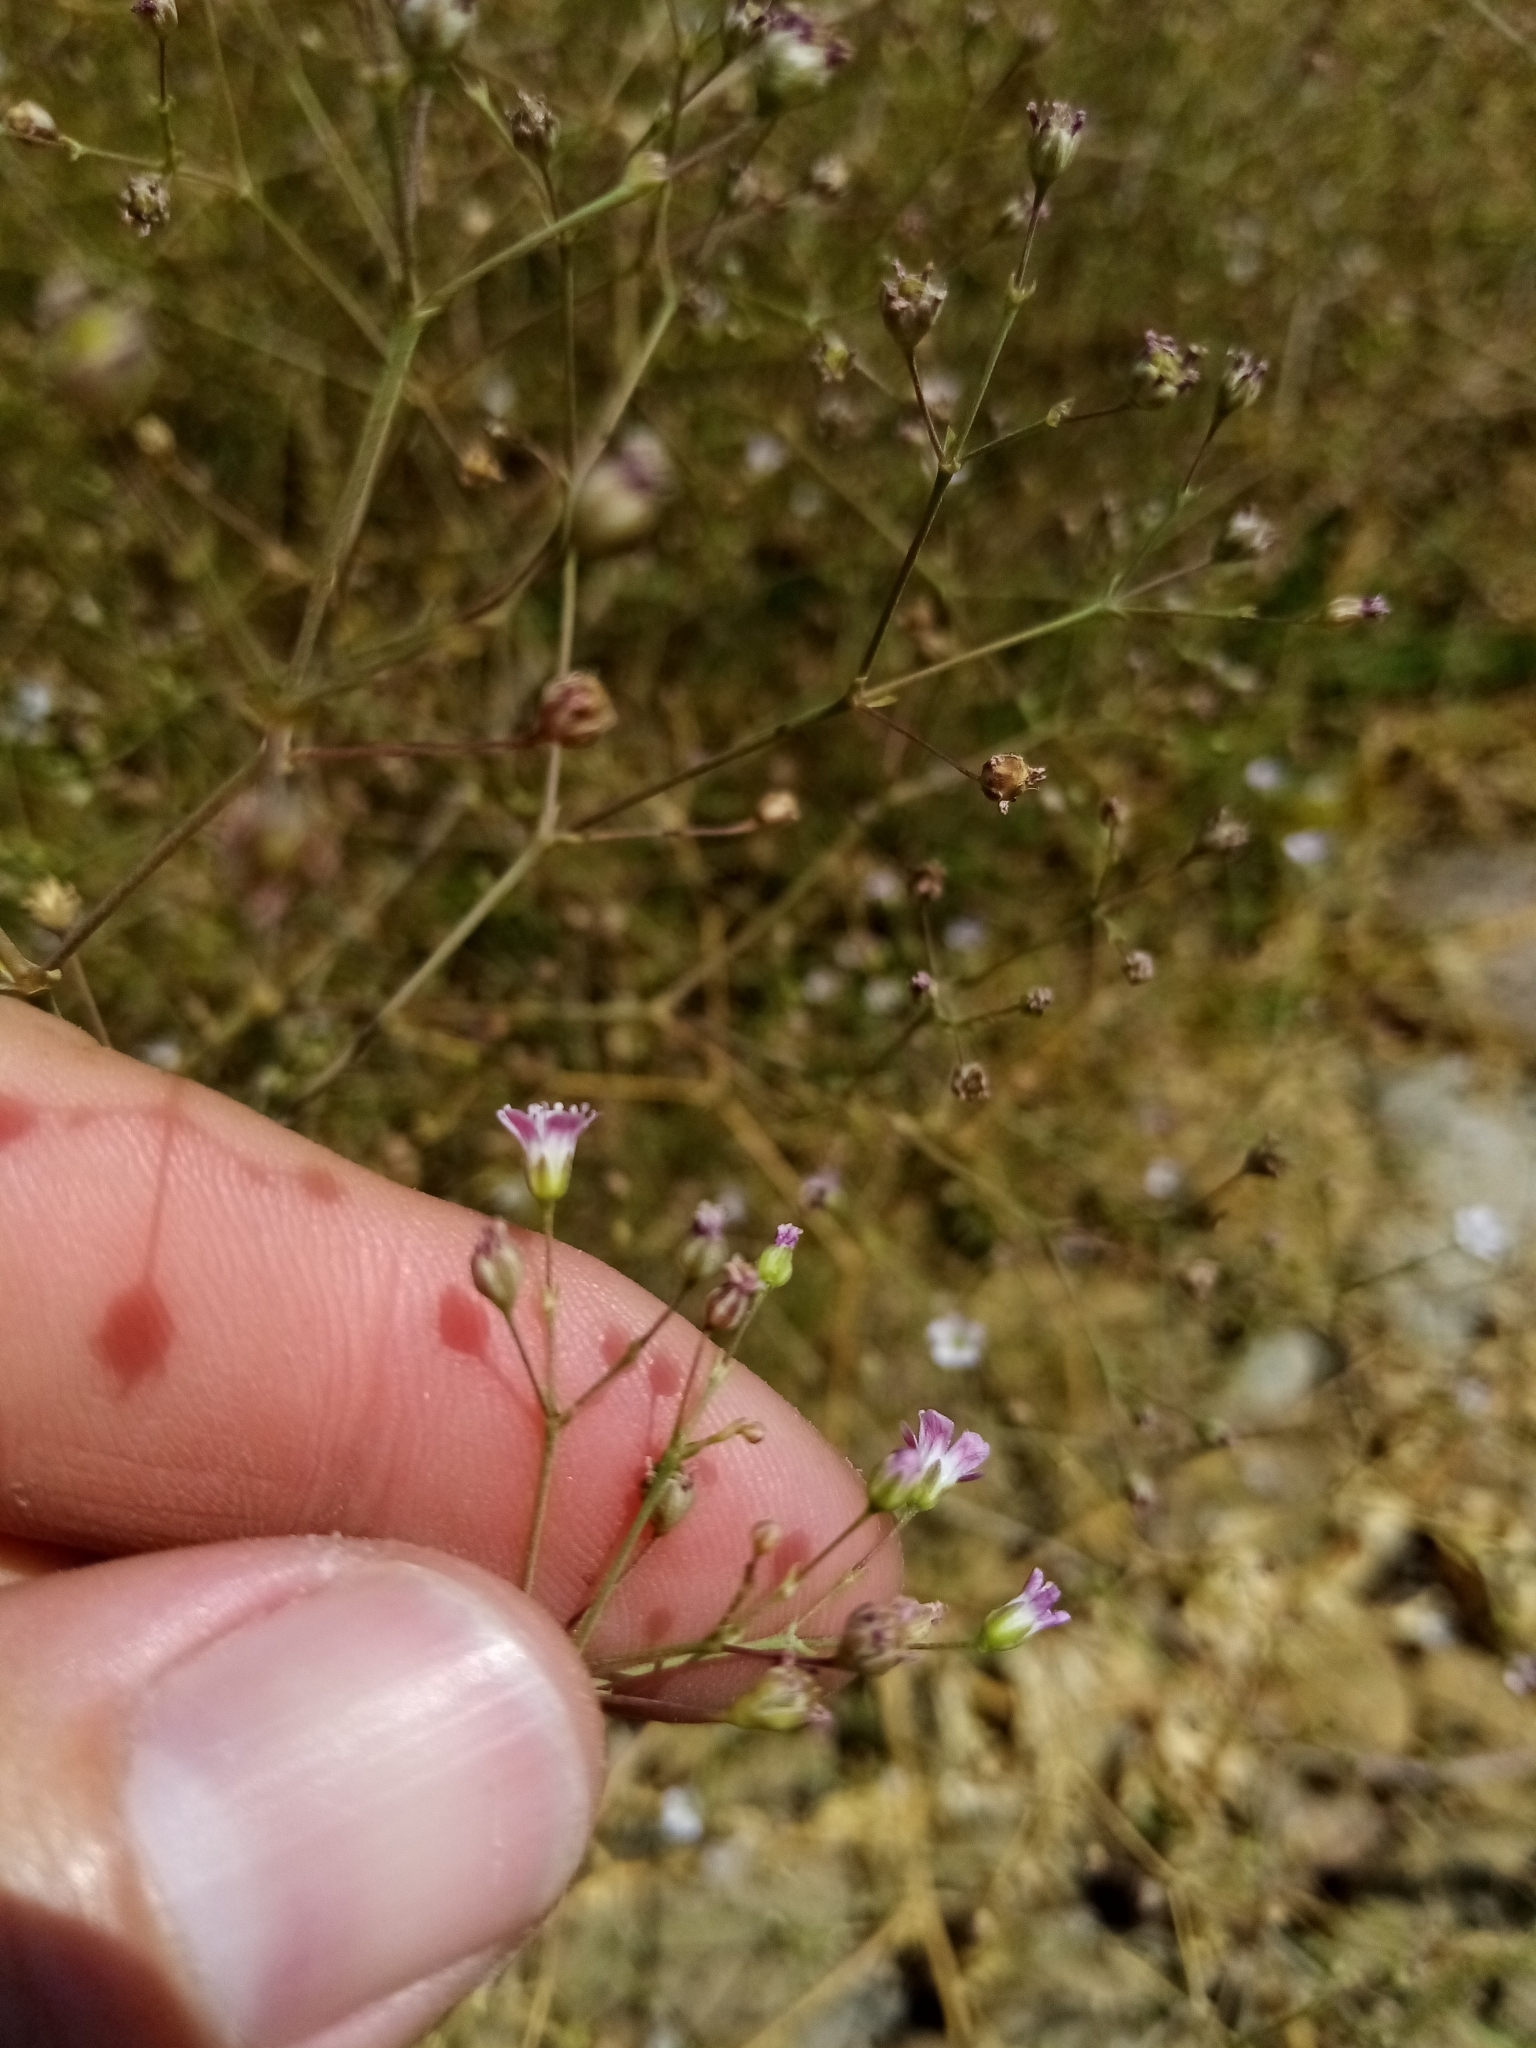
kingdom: Plantae
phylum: Tracheophyta
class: Magnoliopsida
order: Caryophyllales
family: Caryophyllaceae
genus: Gypsophila
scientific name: Gypsophila perfoliata
